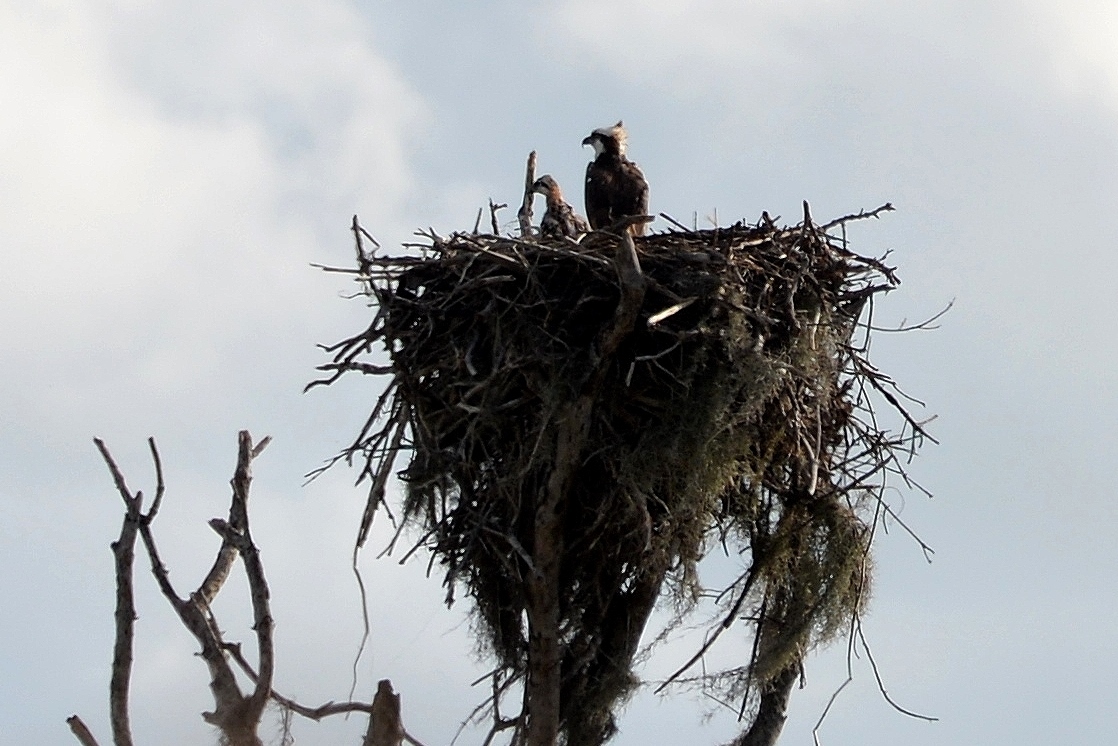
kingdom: Animalia
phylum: Chordata
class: Aves
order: Accipitriformes
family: Pandionidae
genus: Pandion
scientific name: Pandion haliaetus
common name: Osprey
